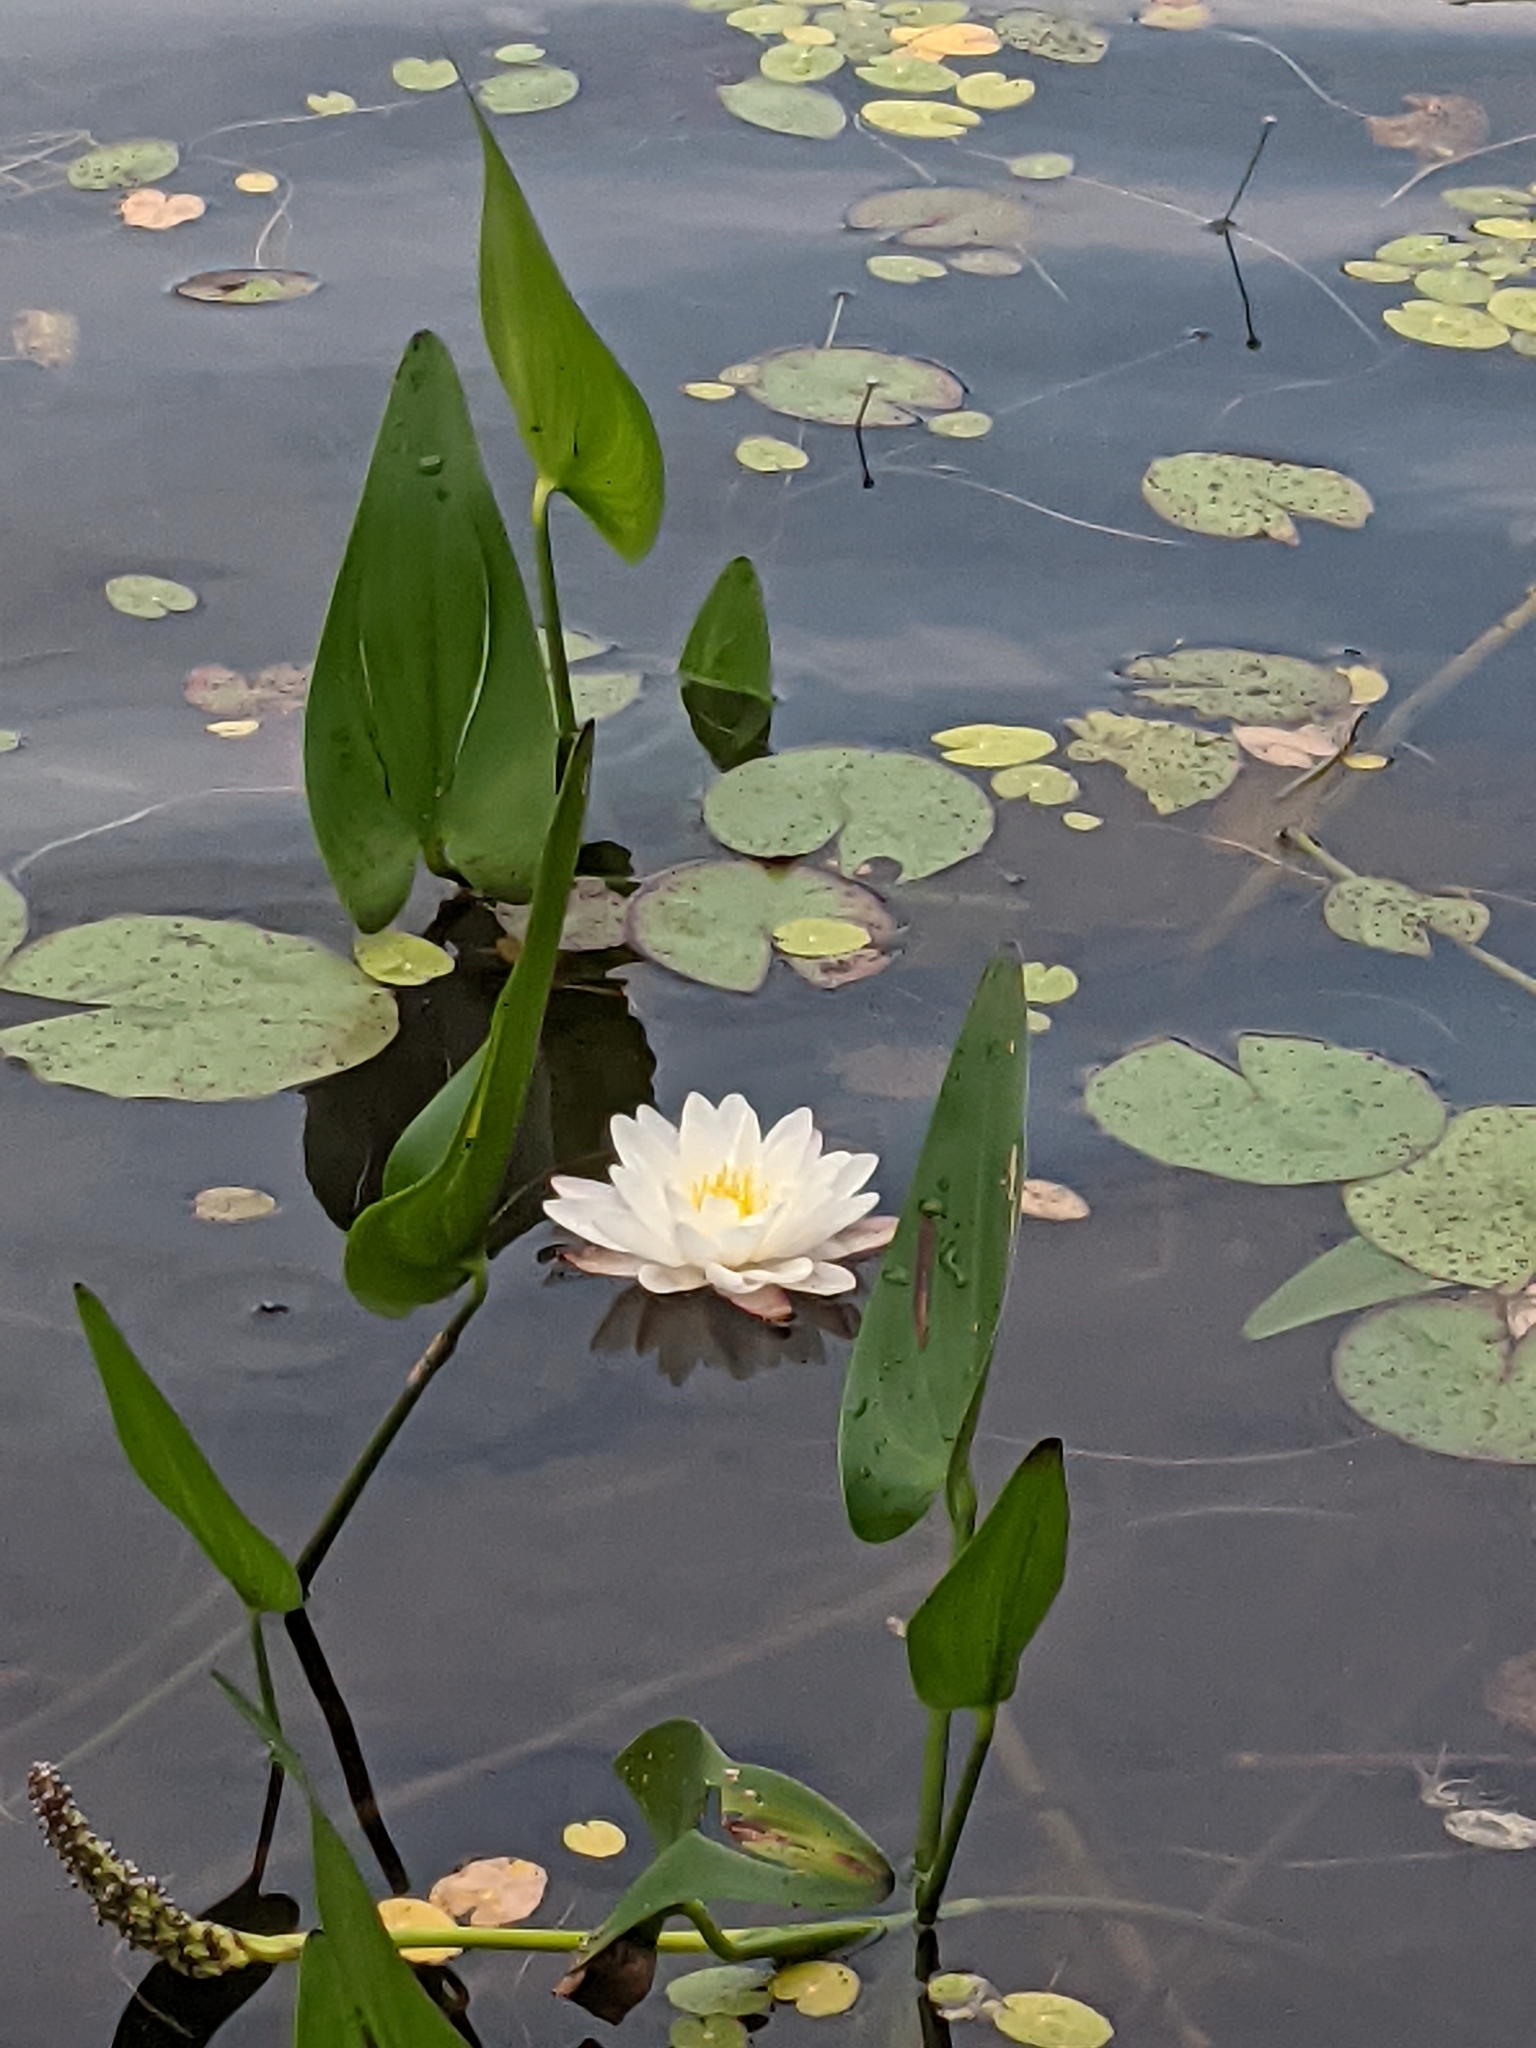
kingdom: Plantae
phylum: Tracheophyta
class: Magnoliopsida
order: Nymphaeales
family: Nymphaeaceae
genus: Nymphaea
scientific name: Nymphaea odorata
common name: Fragrant water-lily
